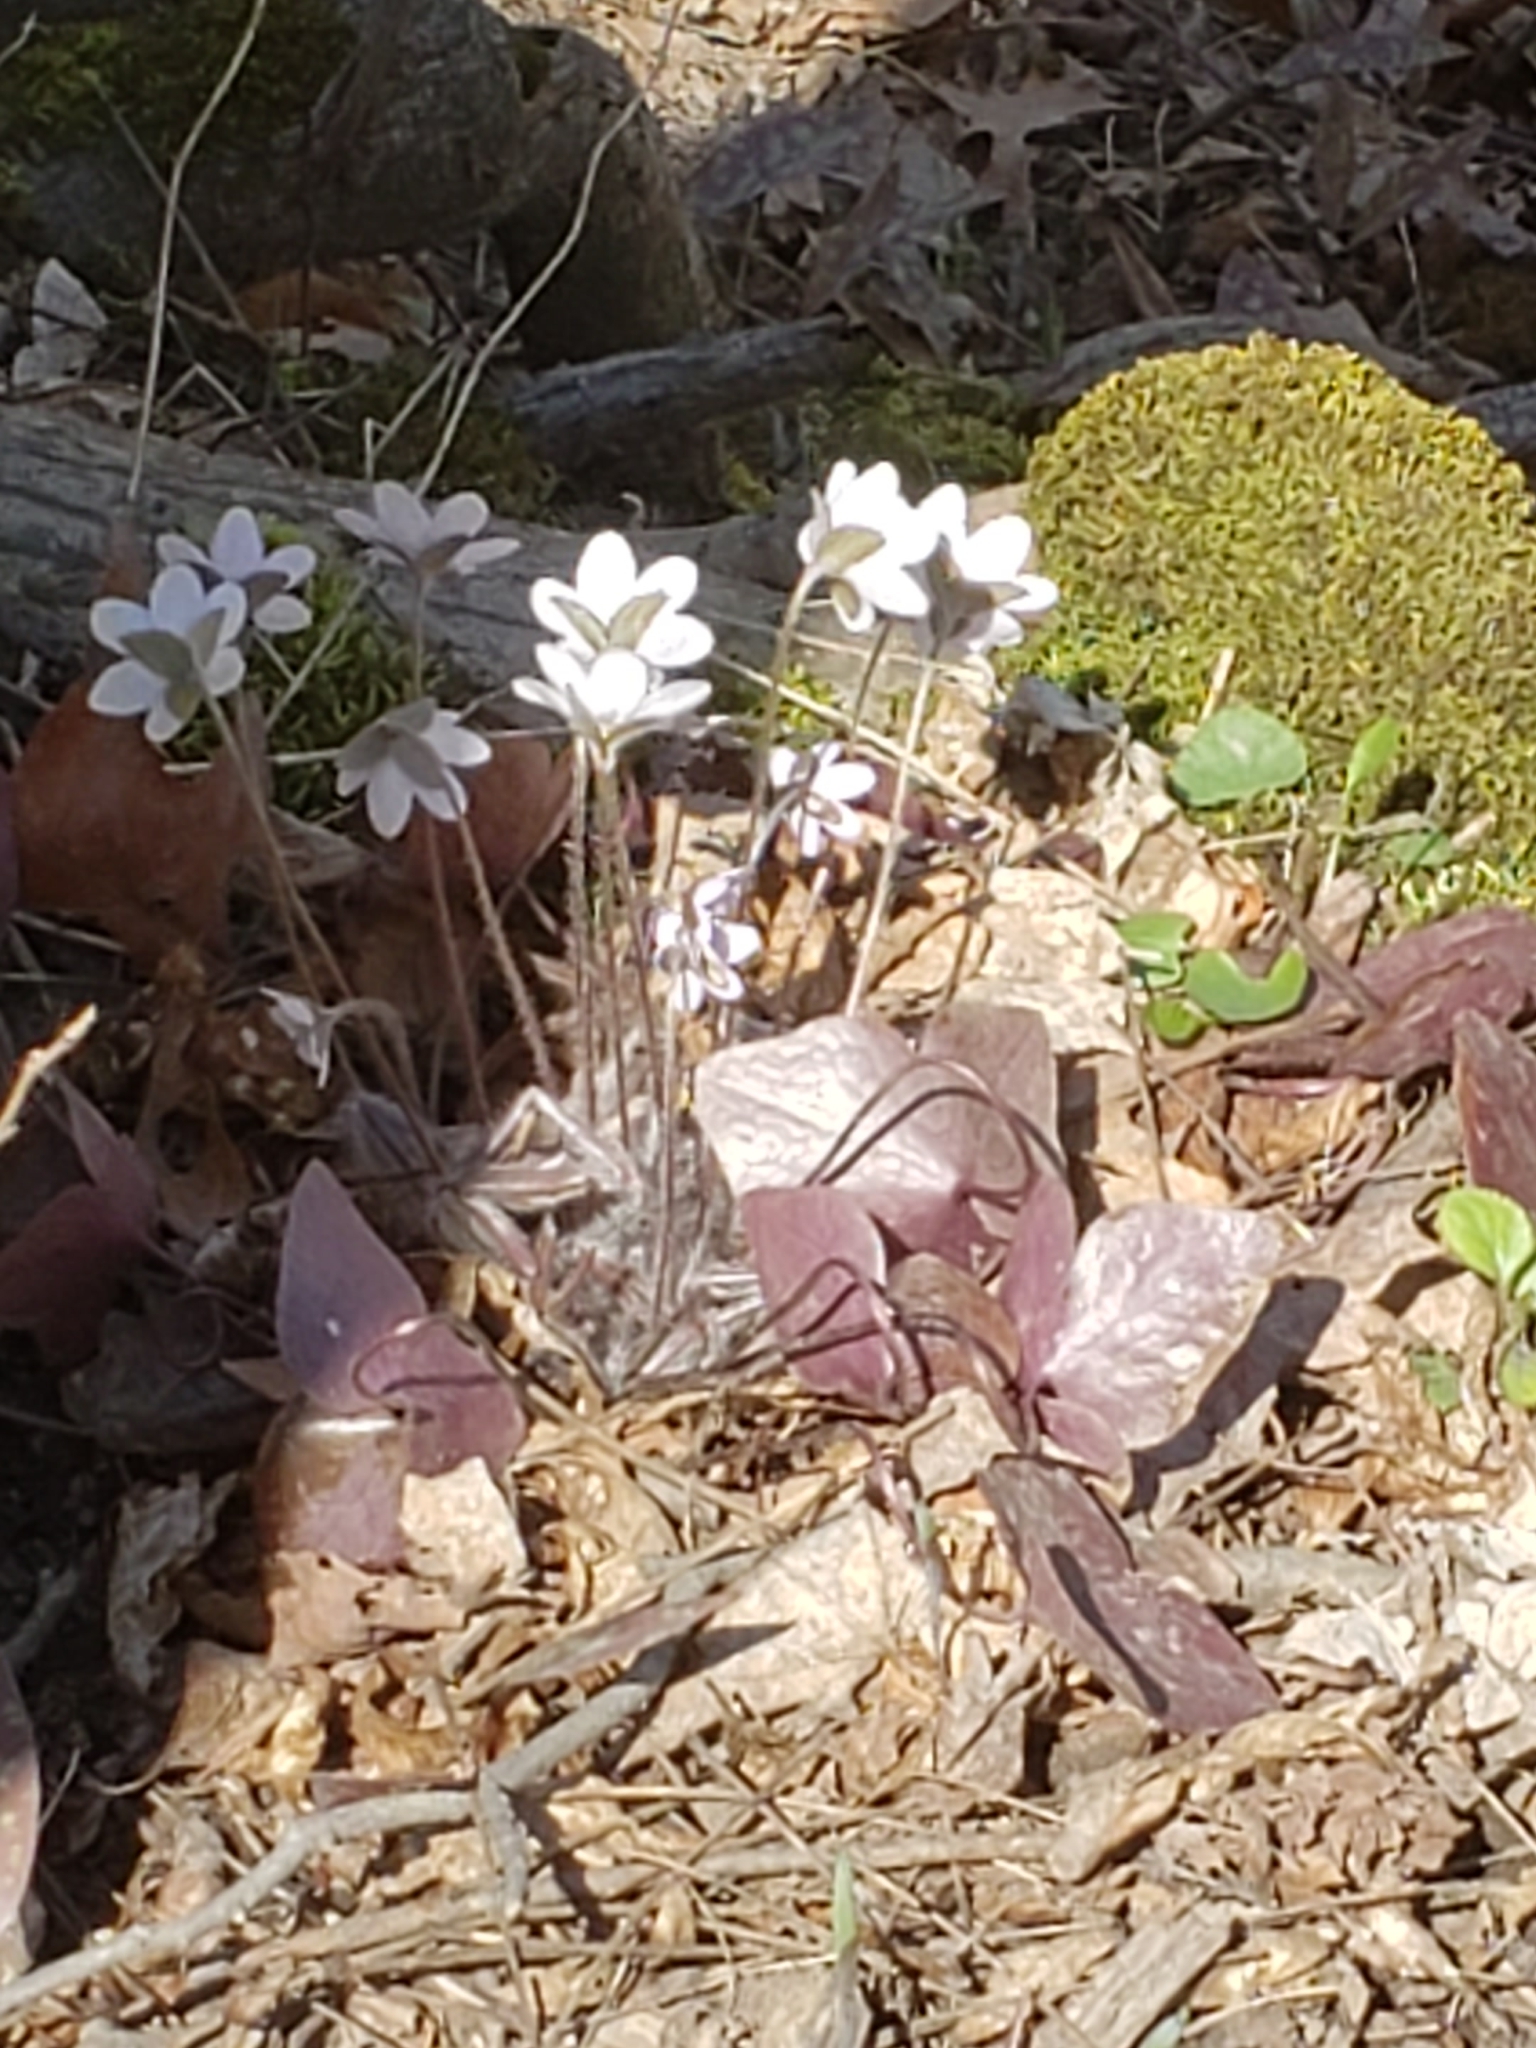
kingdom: Plantae
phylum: Tracheophyta
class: Magnoliopsida
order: Ranunculales
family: Ranunculaceae
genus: Hepatica
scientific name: Hepatica acutiloba
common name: Sharp-lobed hepatica
